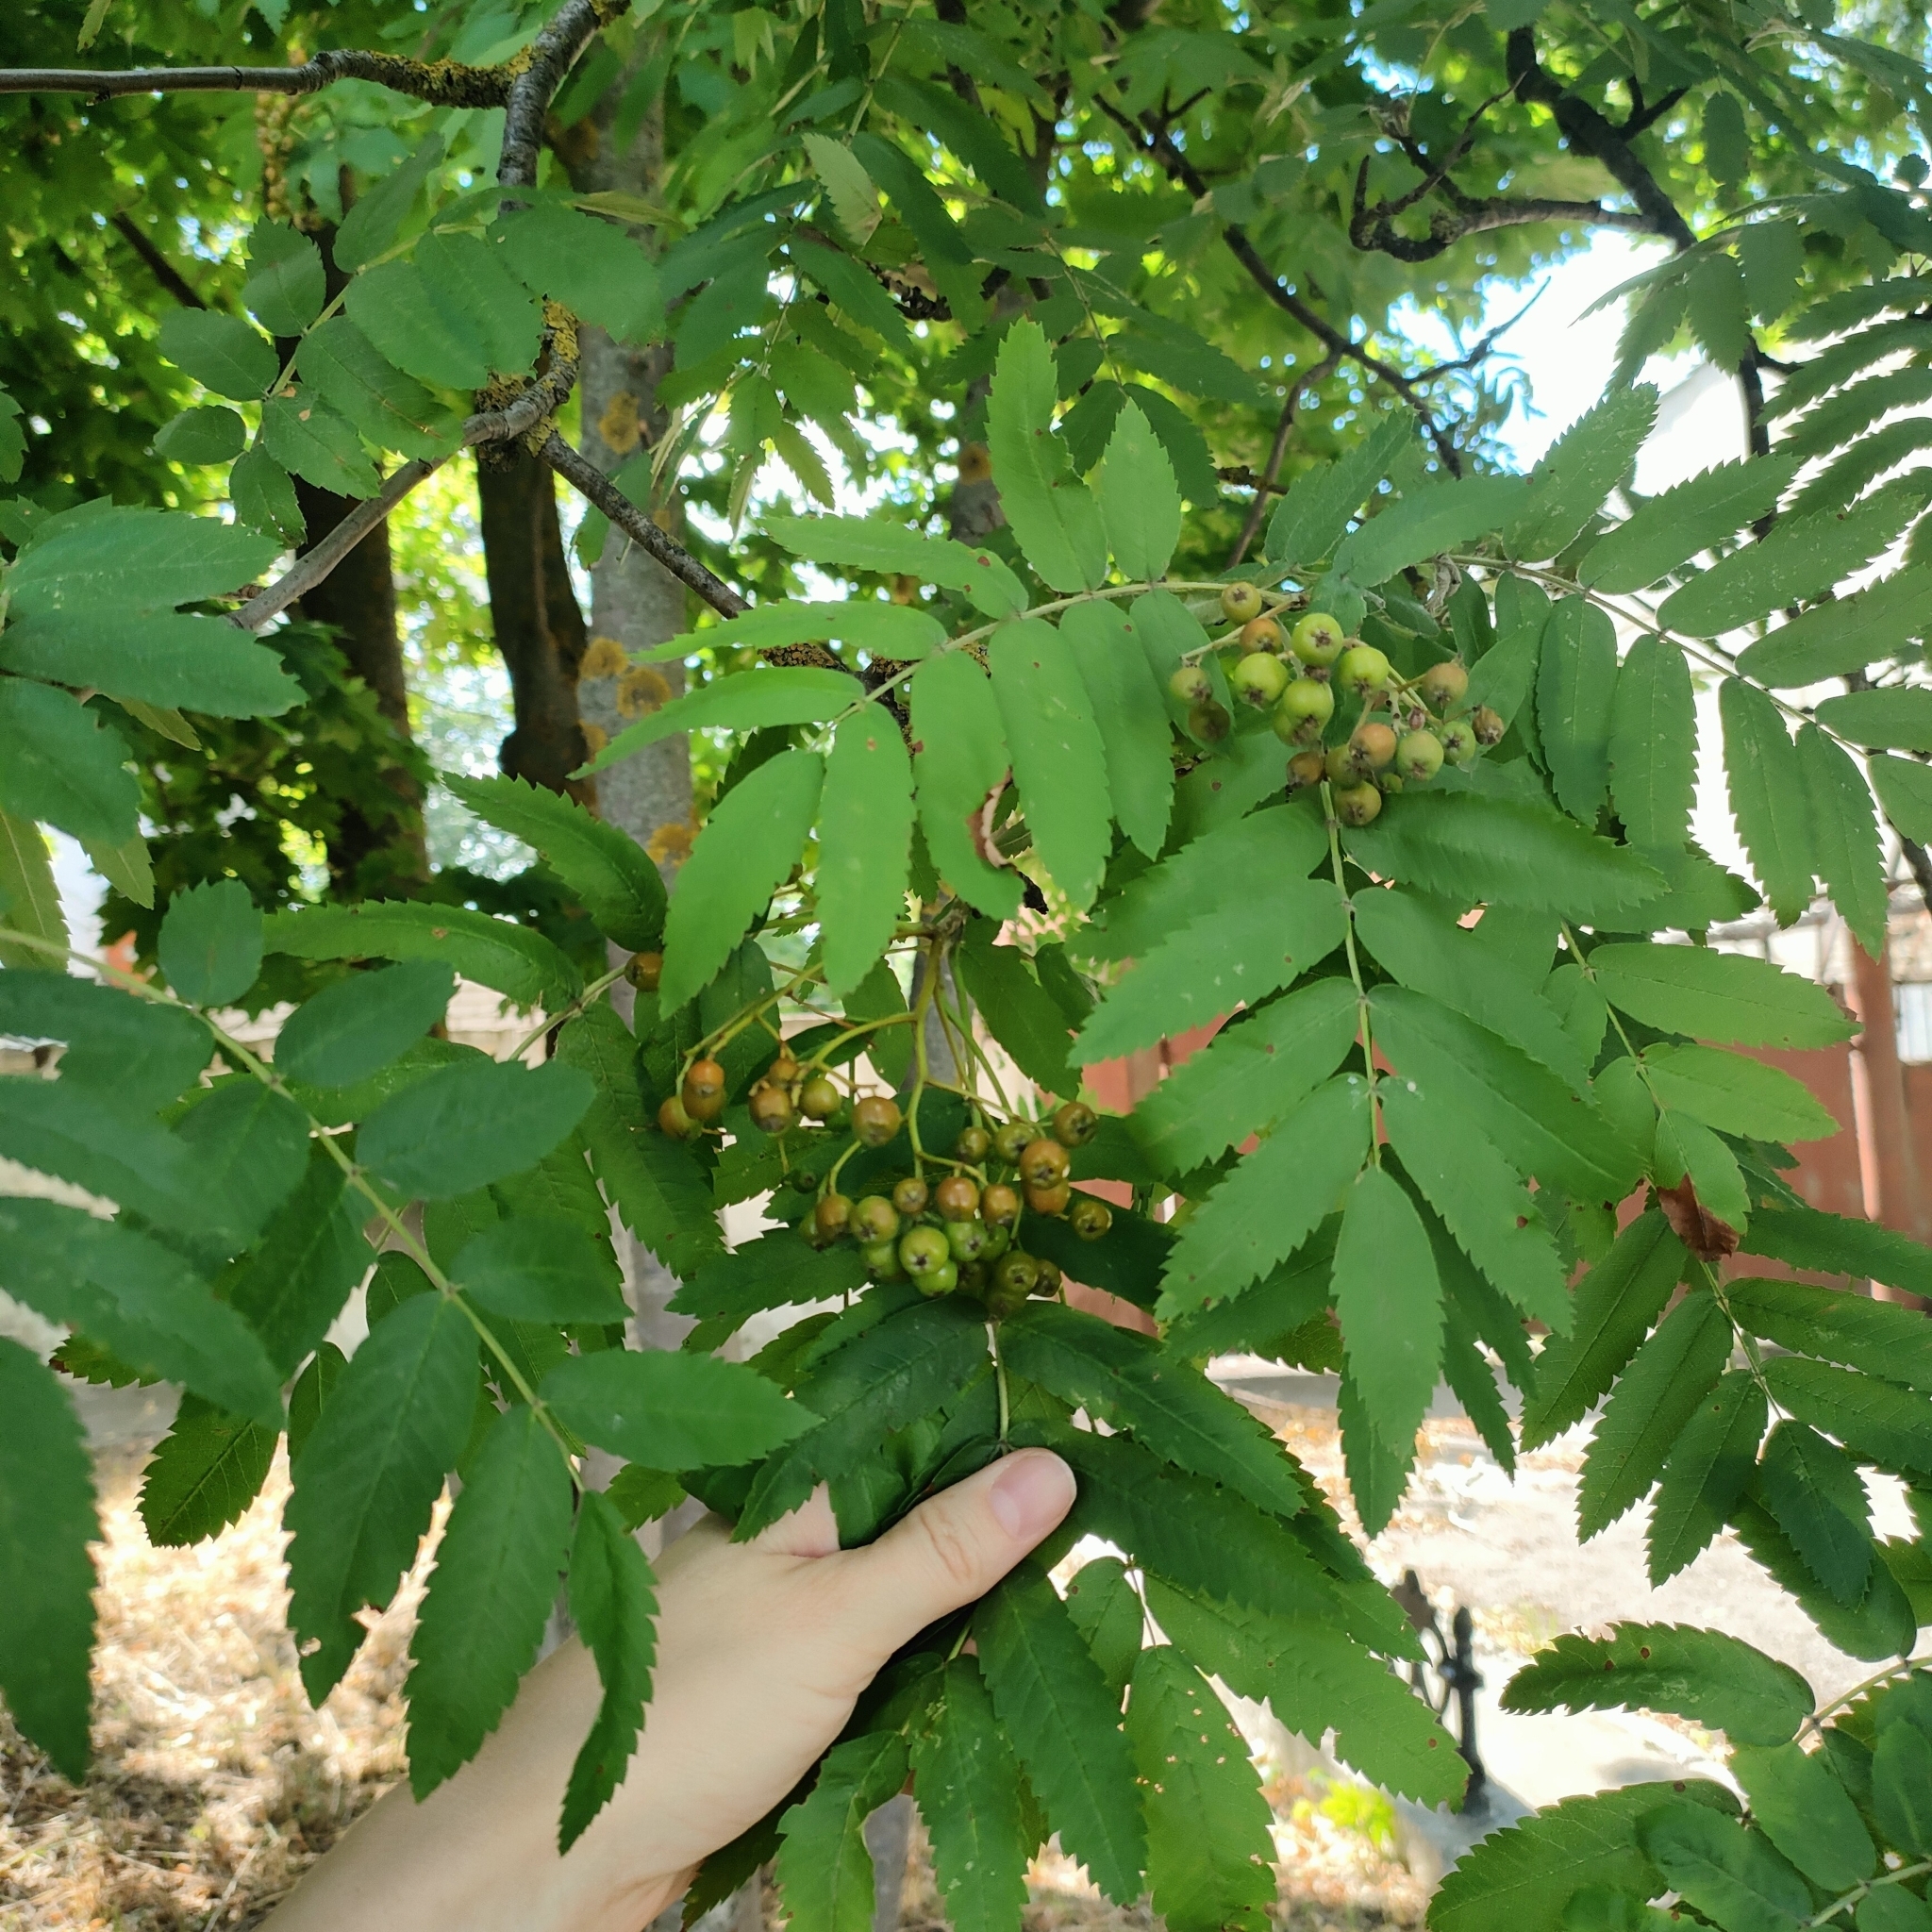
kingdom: Plantae
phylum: Tracheophyta
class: Magnoliopsida
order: Rosales
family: Rosaceae
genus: Sorbus
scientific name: Sorbus aucuparia
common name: Rowan
